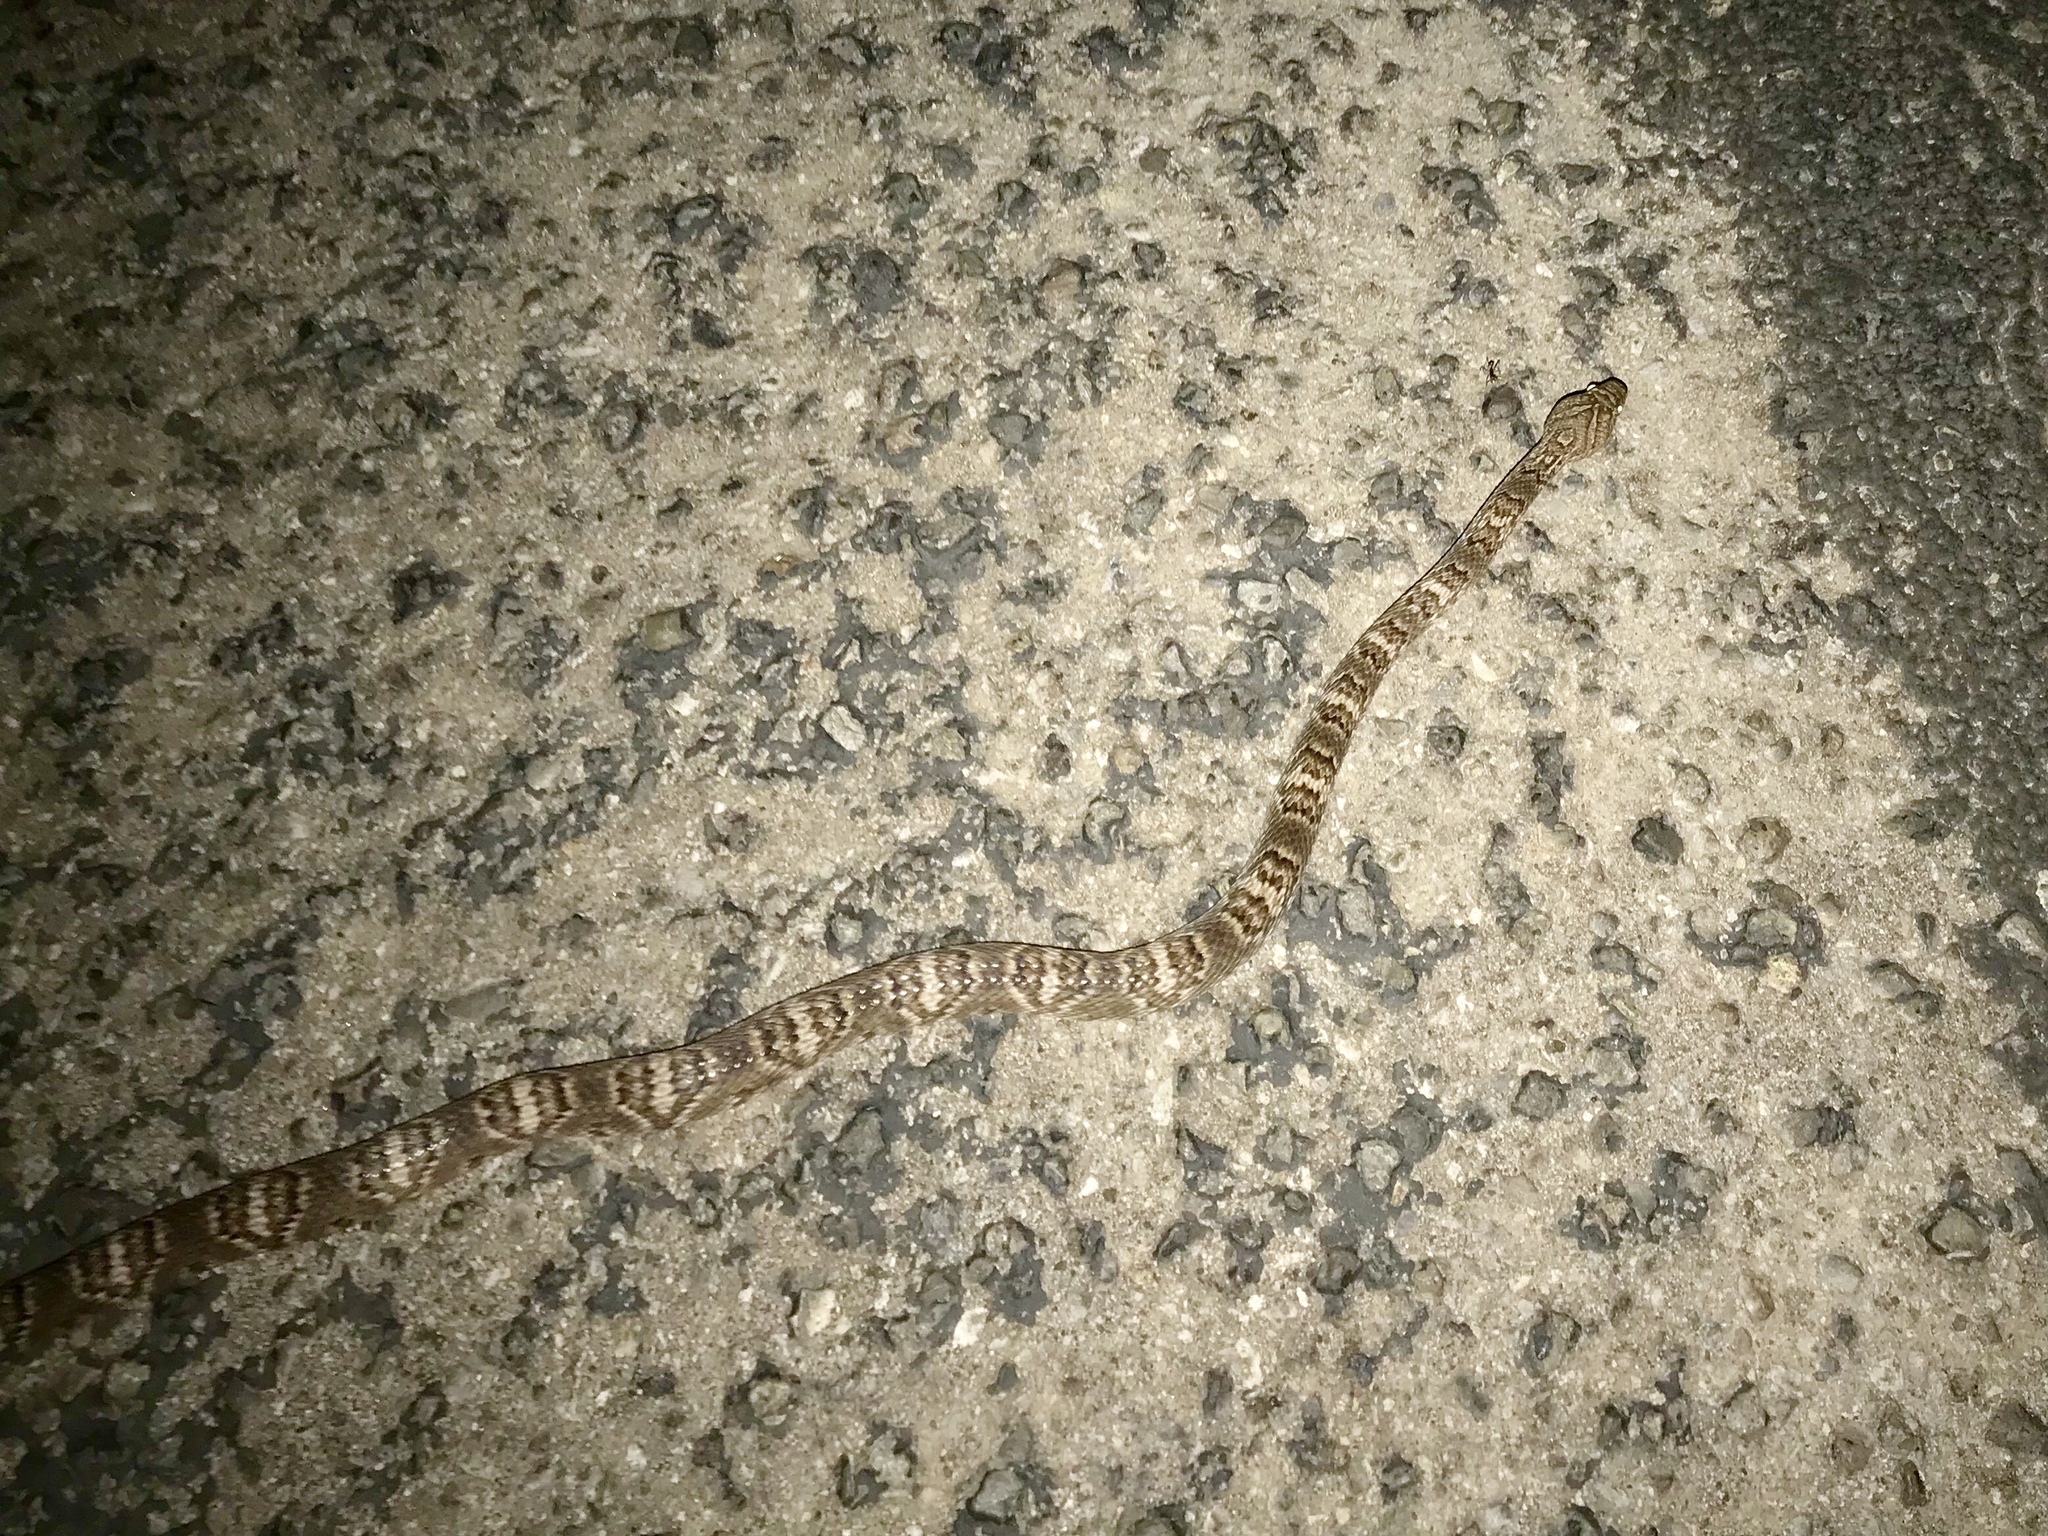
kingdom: Animalia
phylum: Chordata
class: Squamata
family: Colubridae
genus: Trimorphodon
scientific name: Trimorphodon lambda
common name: Sonoran lyre snake
